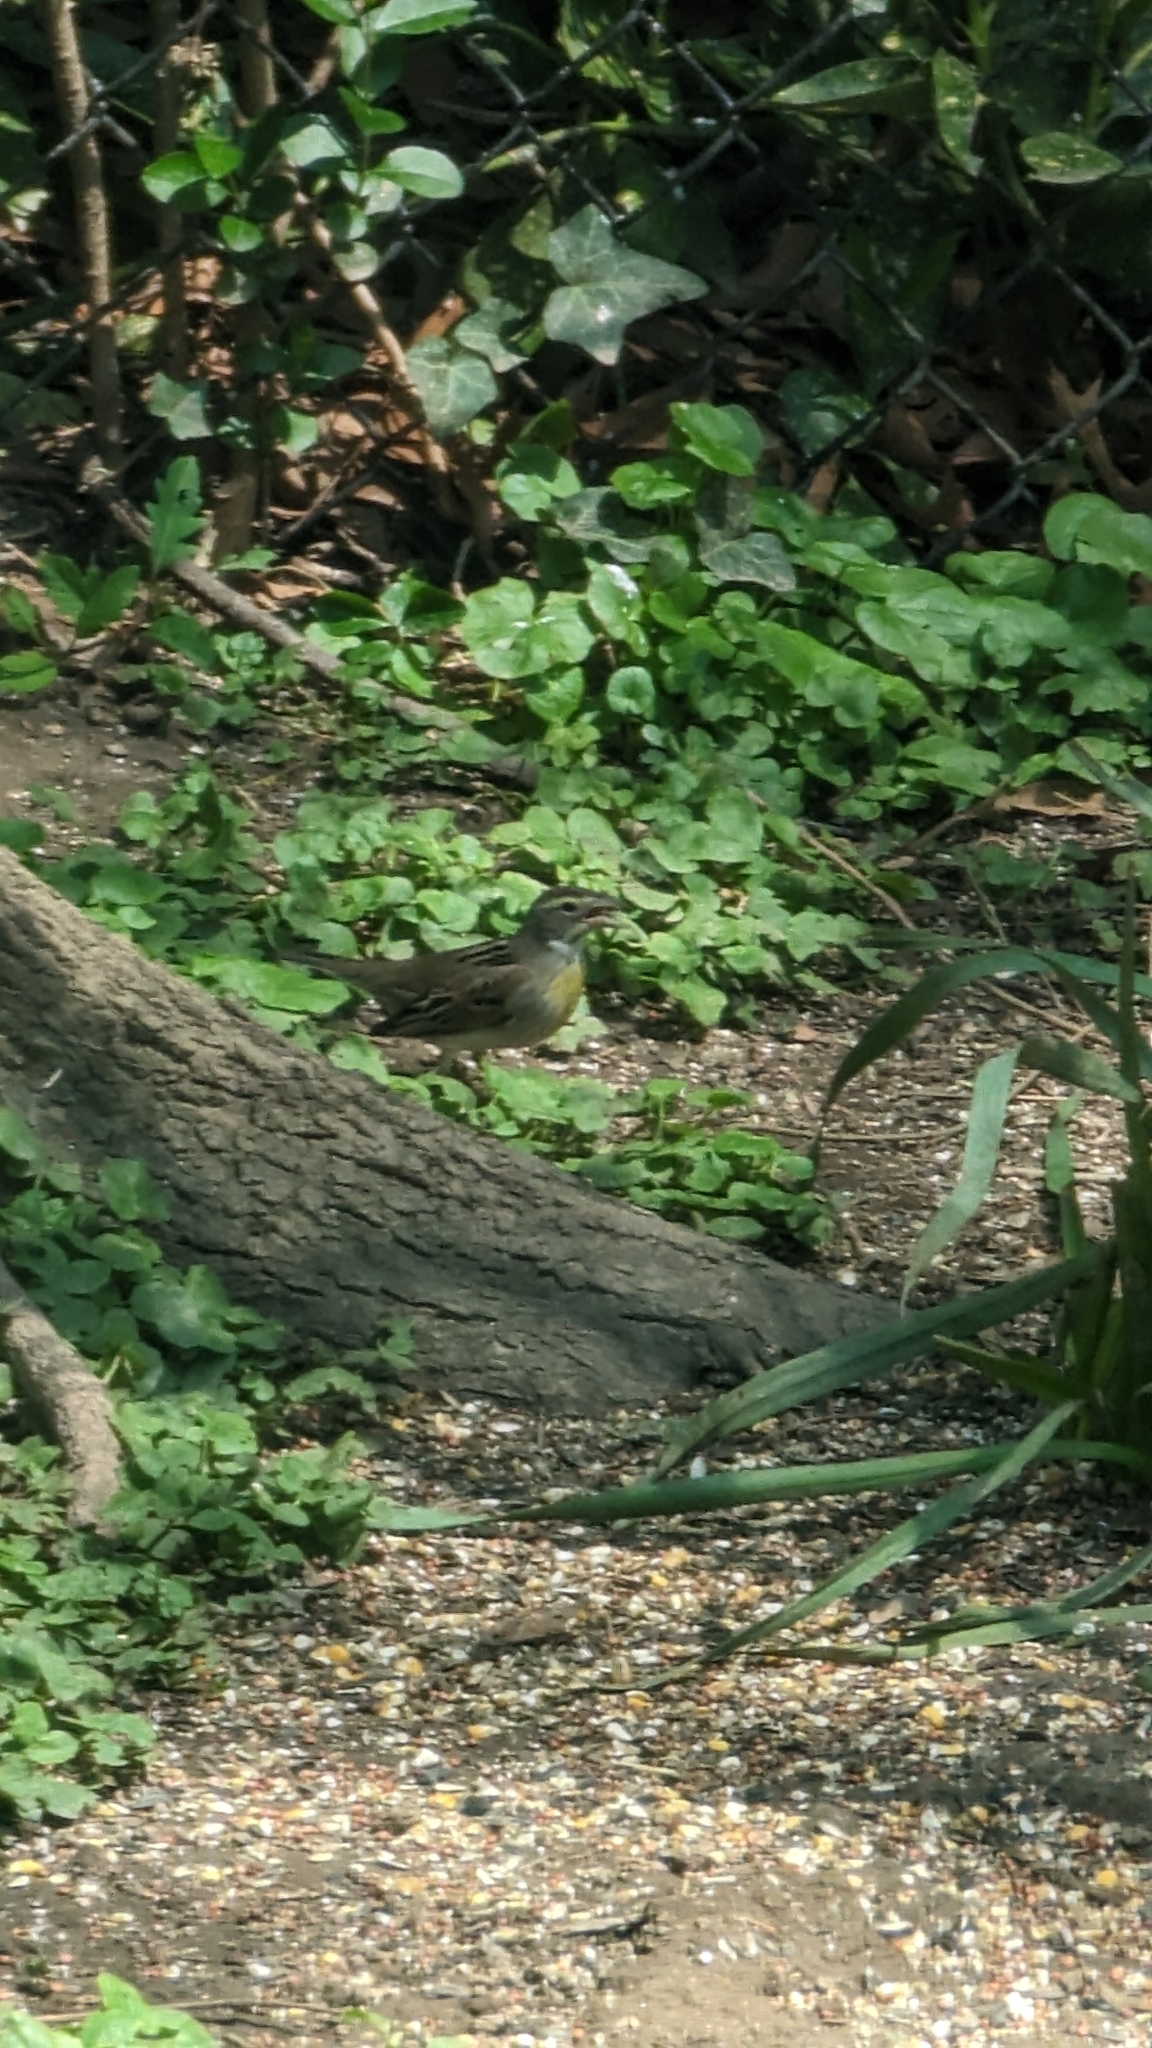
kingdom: Animalia
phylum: Chordata
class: Aves
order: Passeriformes
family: Cardinalidae
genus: Spiza
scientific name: Spiza americana
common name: Dickcissel
